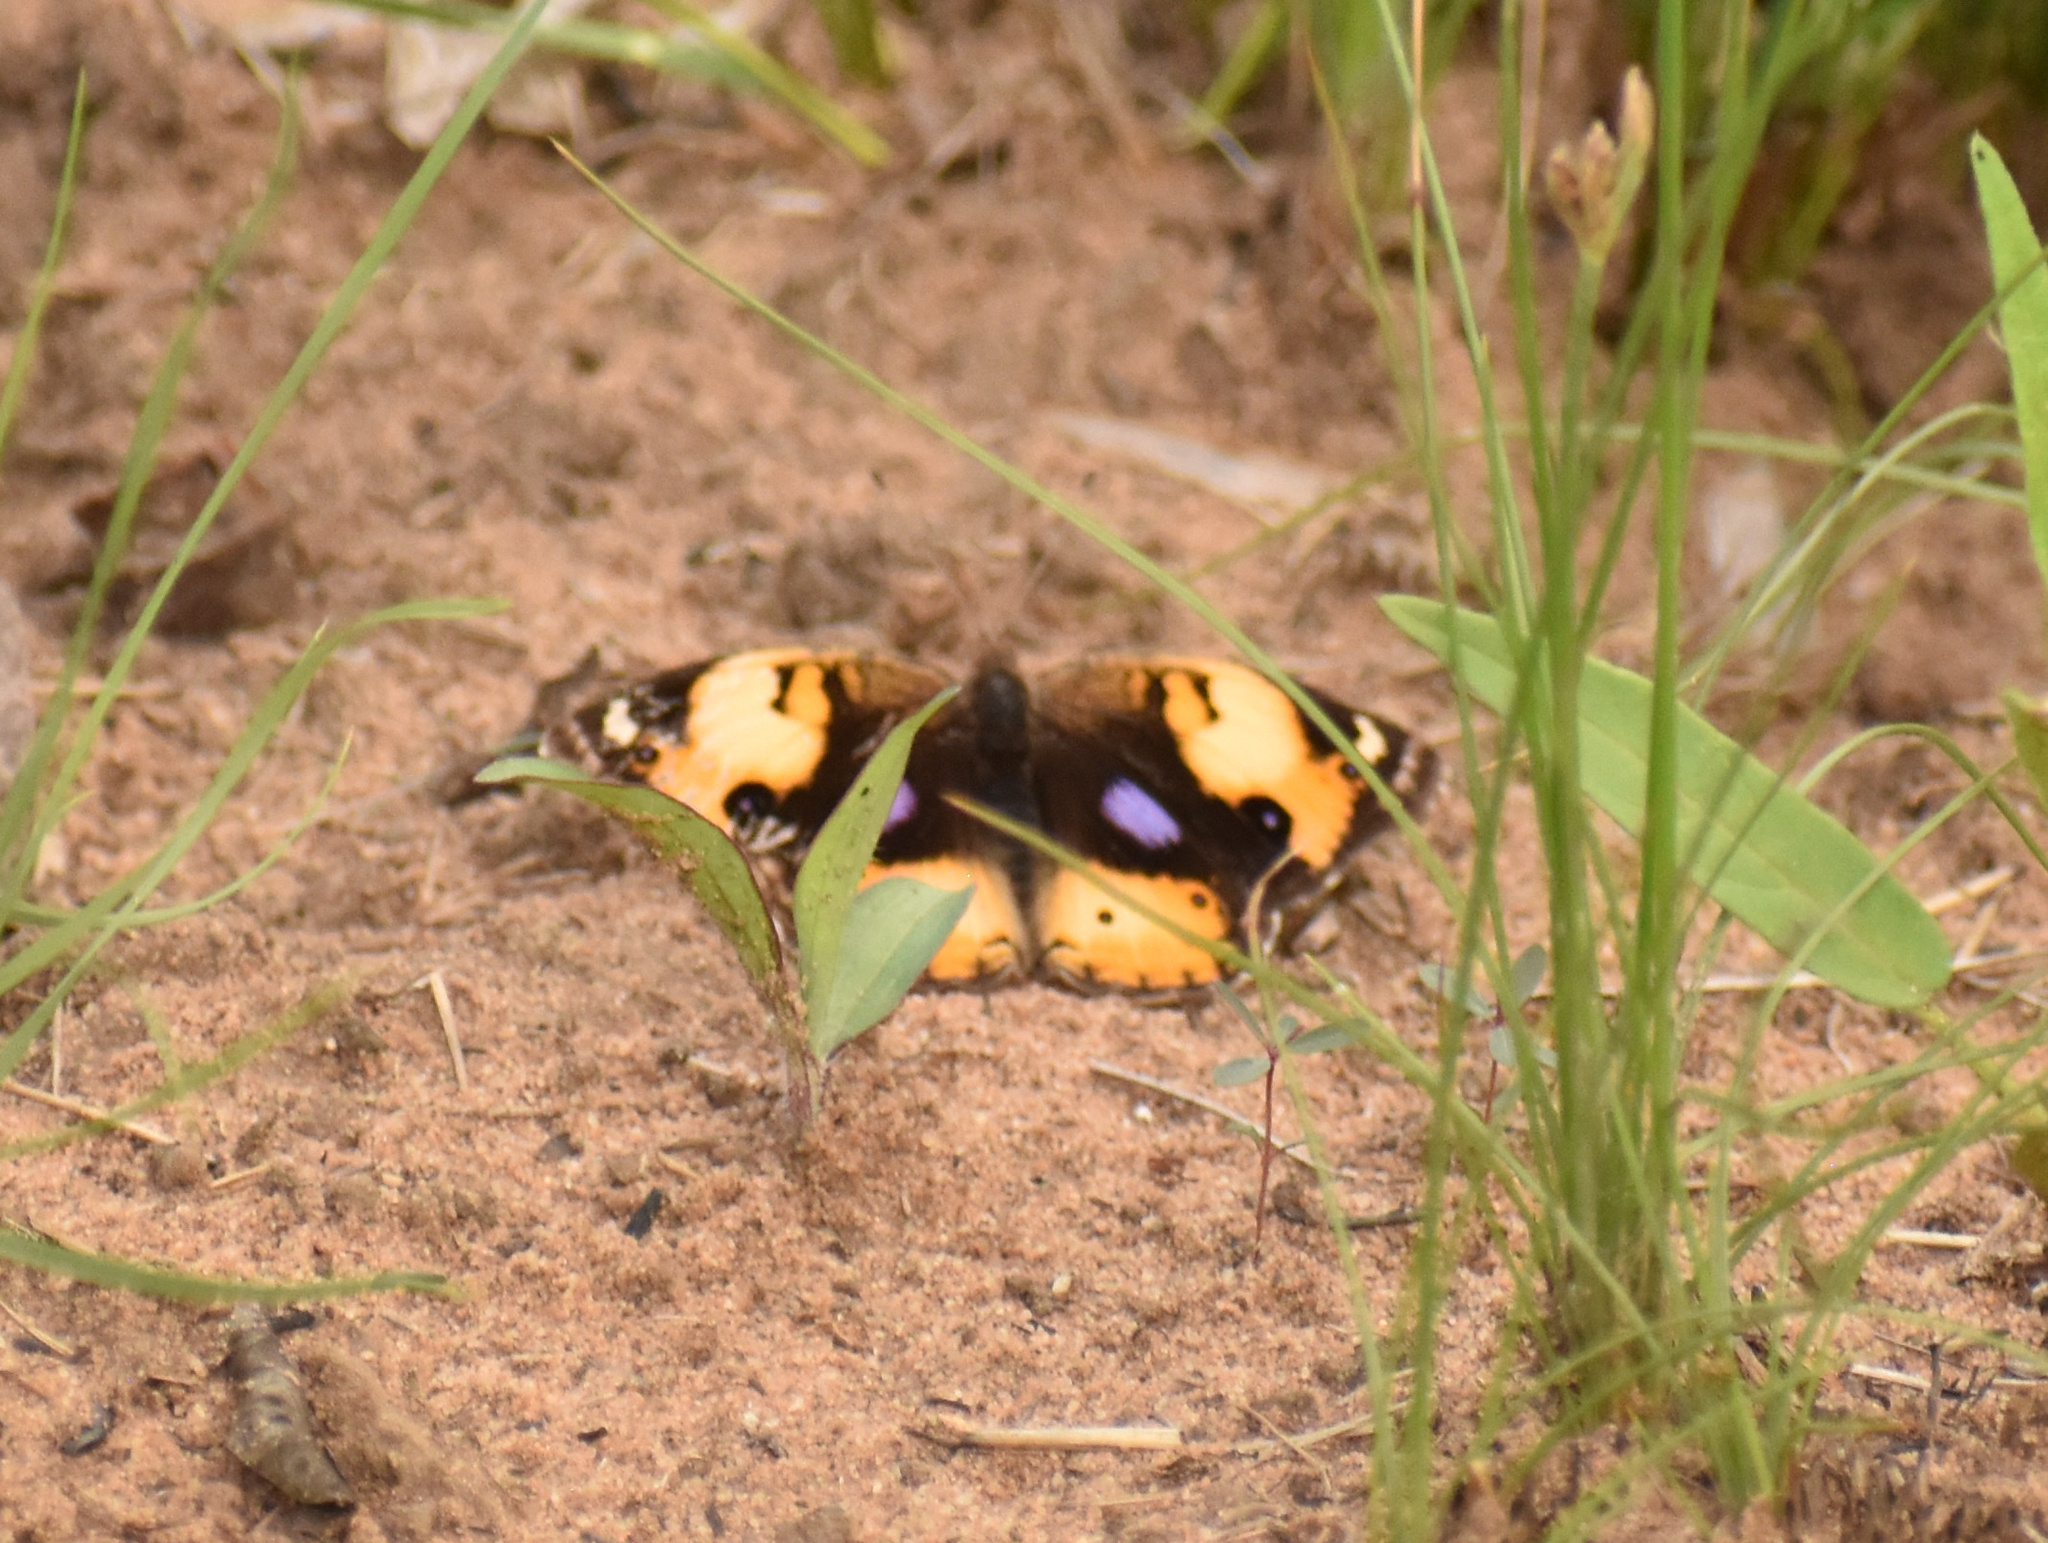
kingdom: Animalia
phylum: Arthropoda
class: Insecta
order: Lepidoptera
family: Nymphalidae
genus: Junonia
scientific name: Junonia hierta
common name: Yellow pansy
